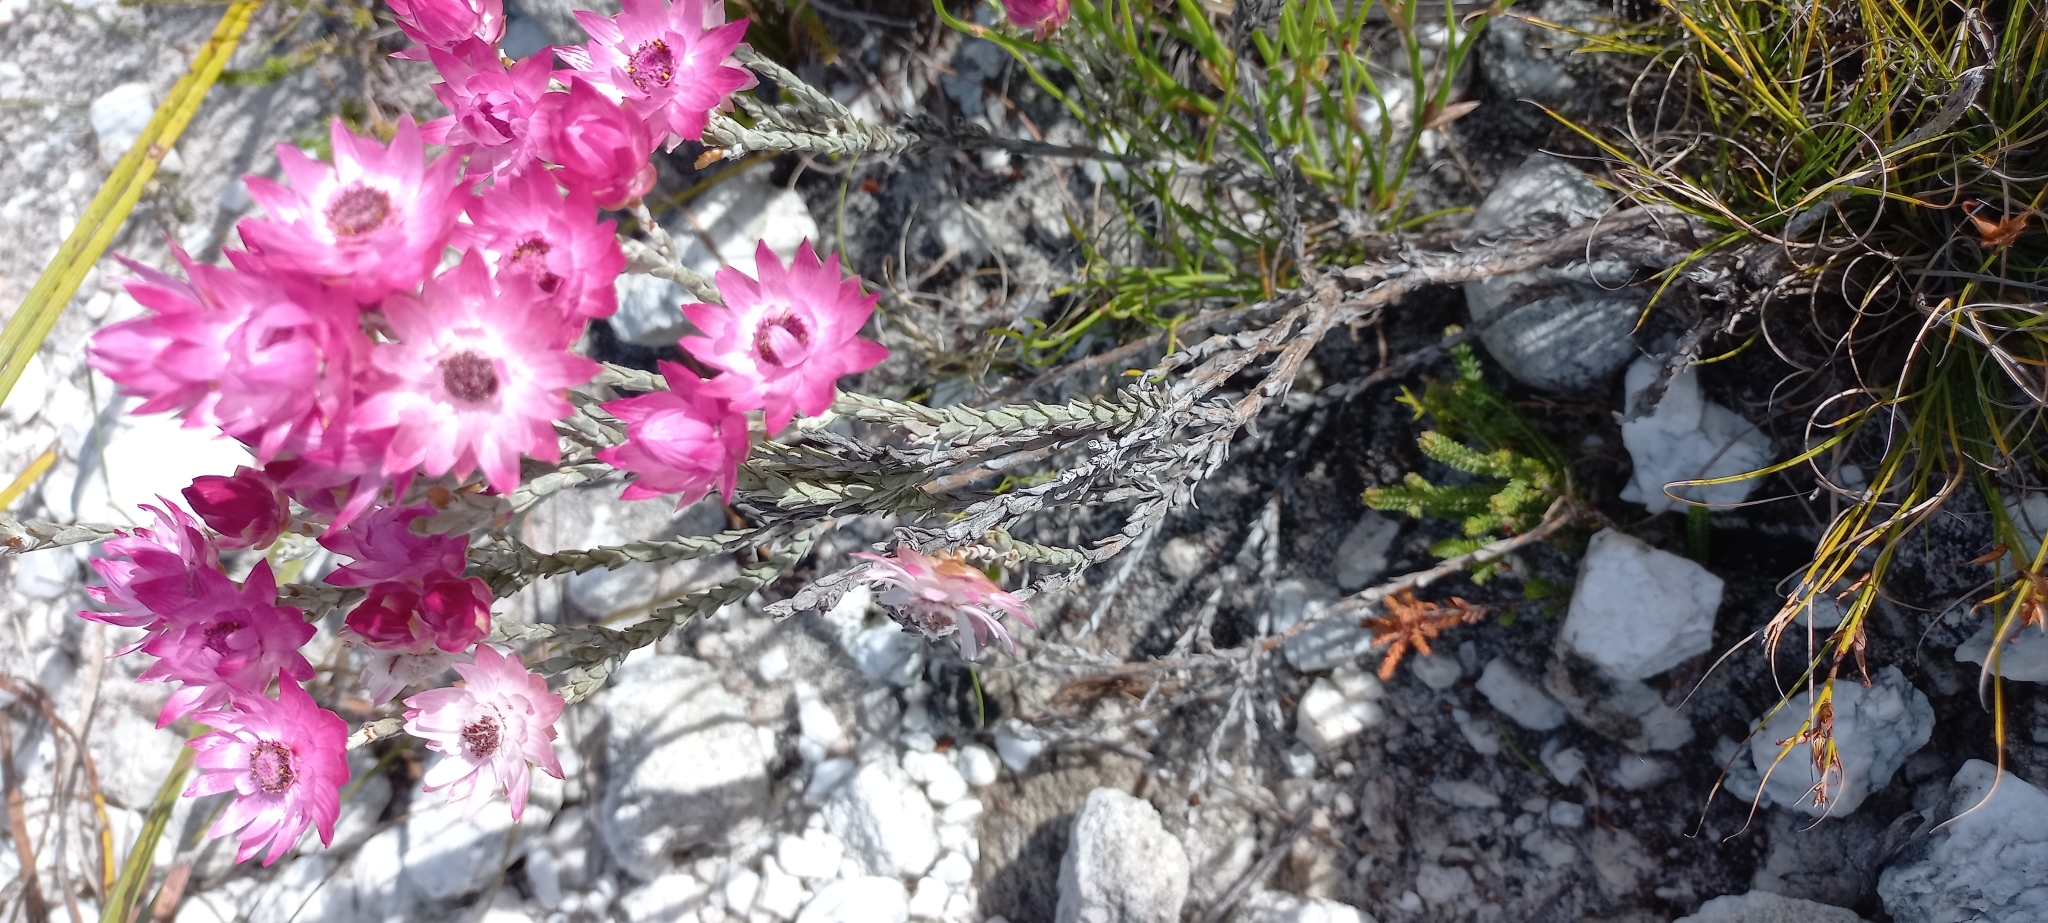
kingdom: Plantae
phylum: Tracheophyta
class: Magnoliopsida
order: Asterales
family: Asteraceae
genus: Syncarpha
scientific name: Syncarpha canescens
